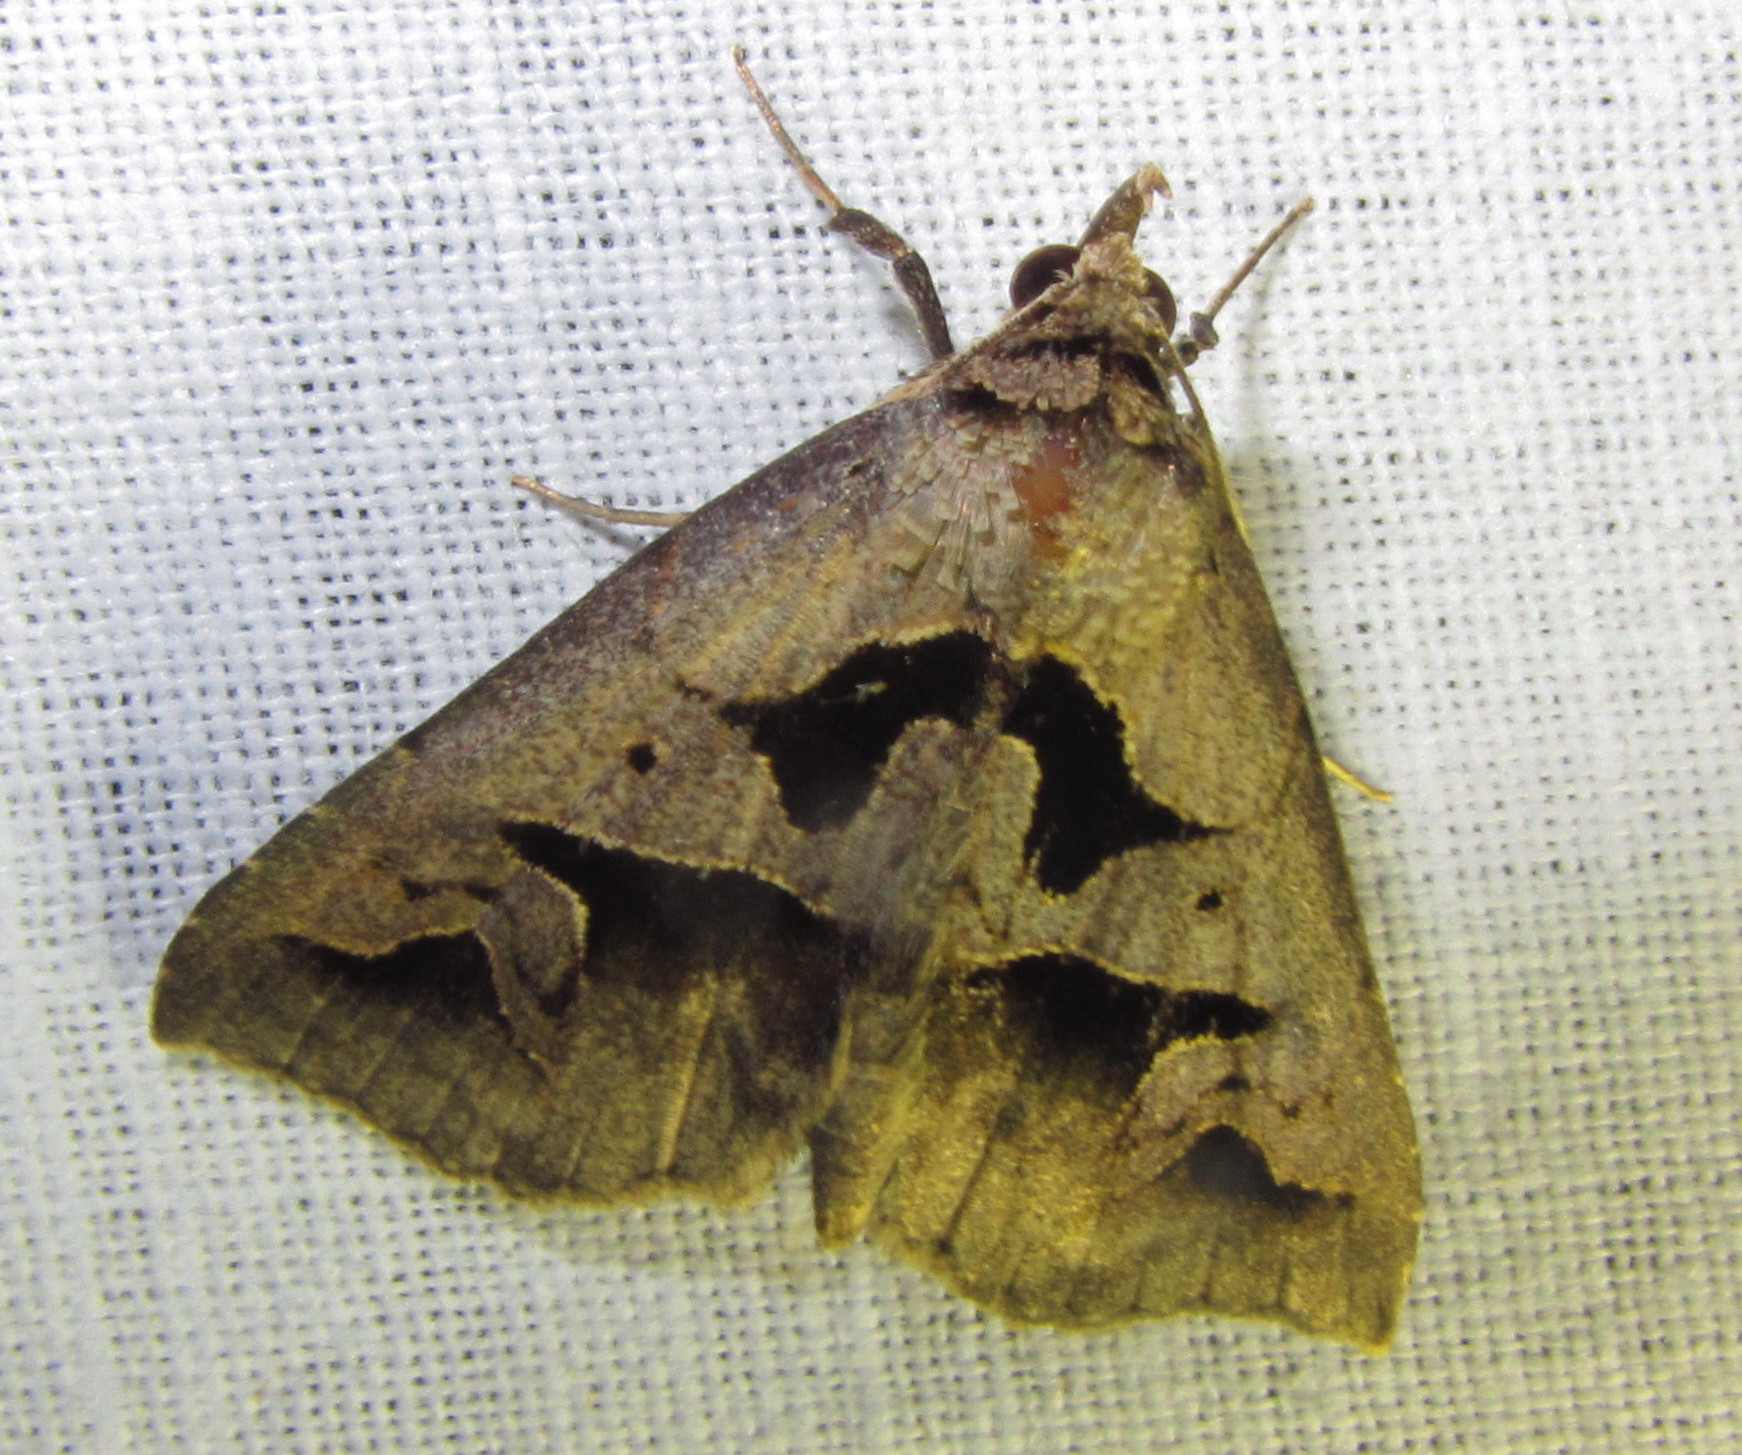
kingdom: Animalia
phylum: Arthropoda
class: Insecta
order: Lepidoptera
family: Erebidae
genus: Tephriopis
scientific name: Tephriopis divulsa
